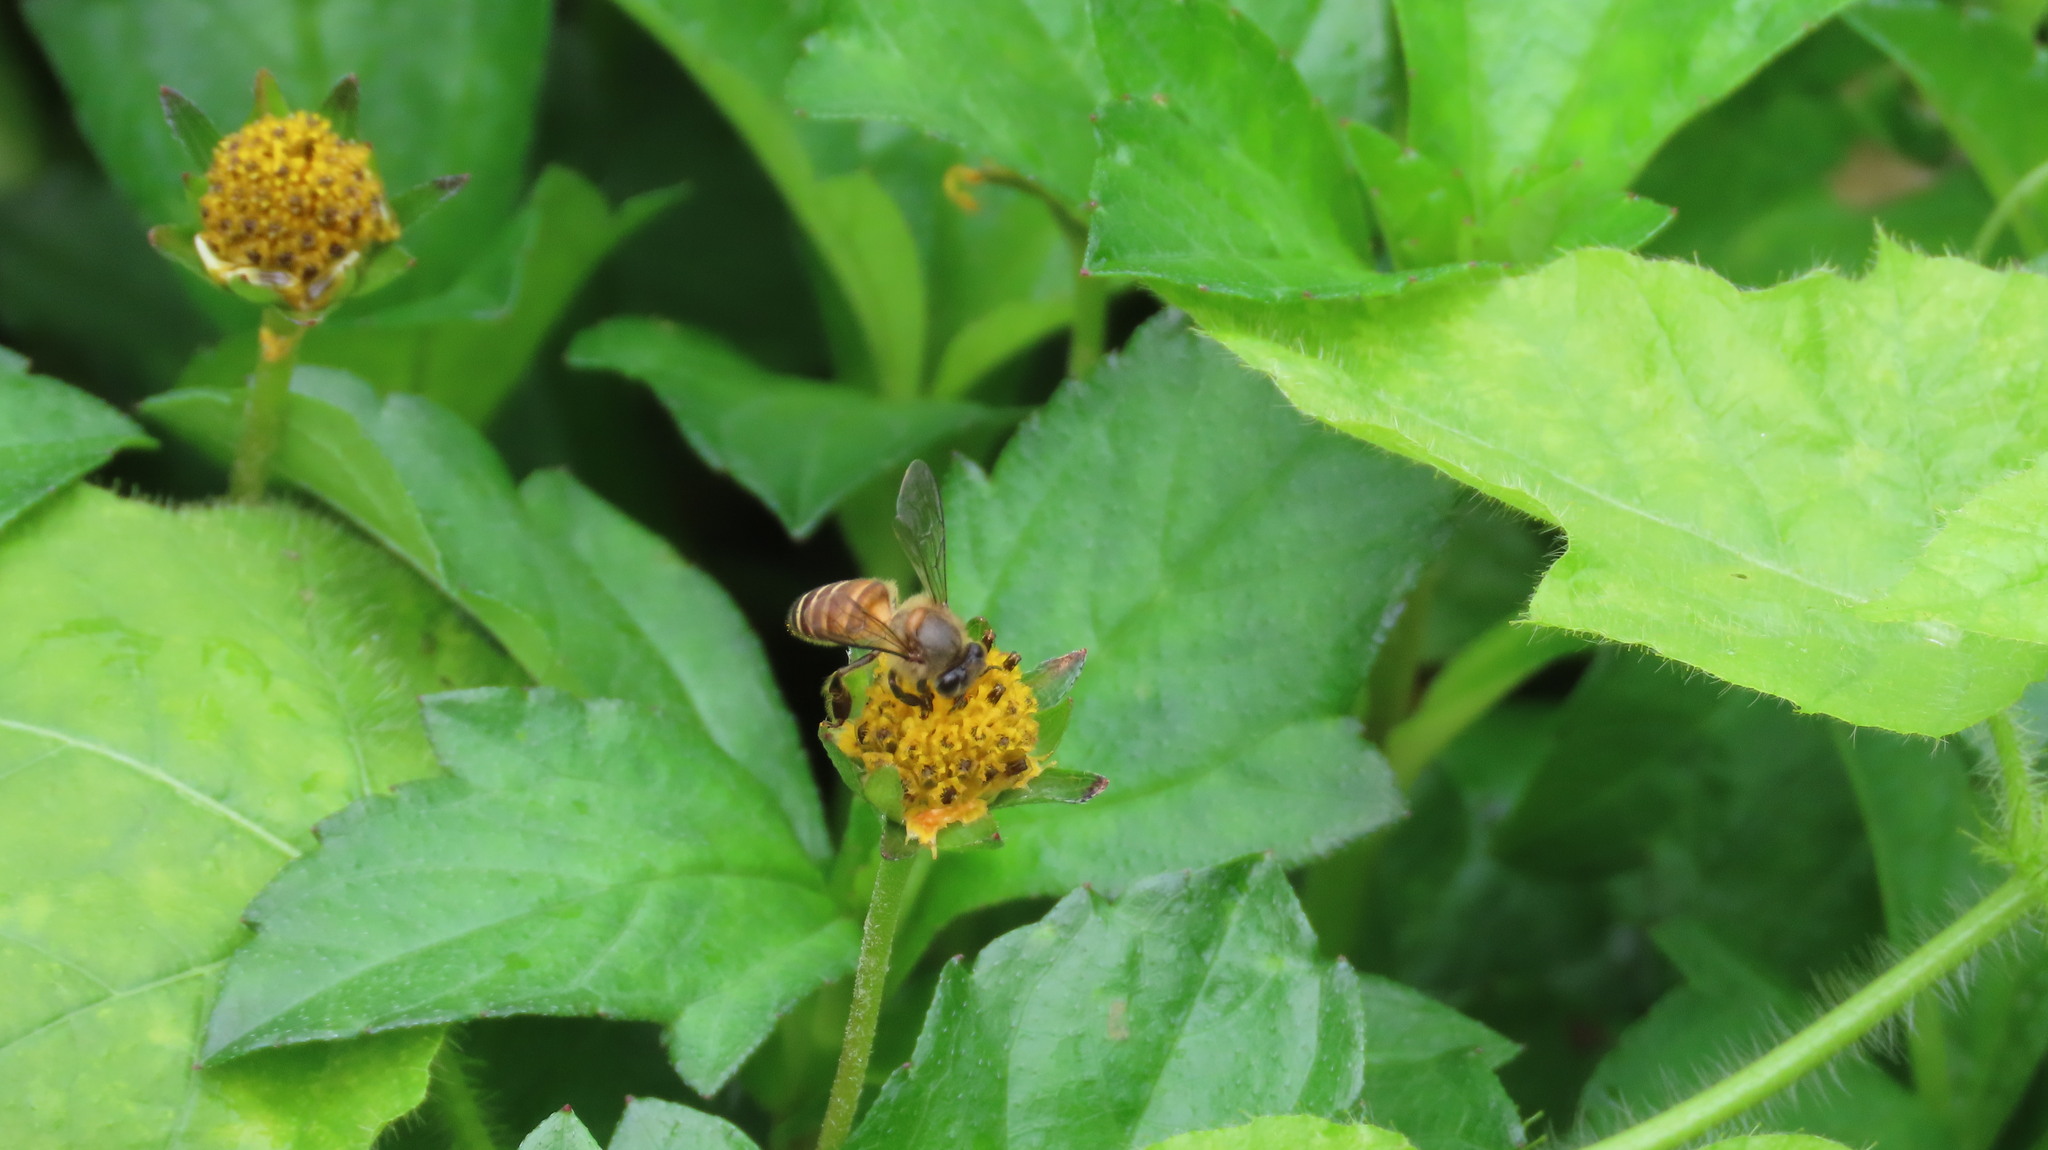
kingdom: Animalia
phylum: Arthropoda
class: Insecta
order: Hymenoptera
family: Apidae
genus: Apis
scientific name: Apis cerana
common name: Honey bee
